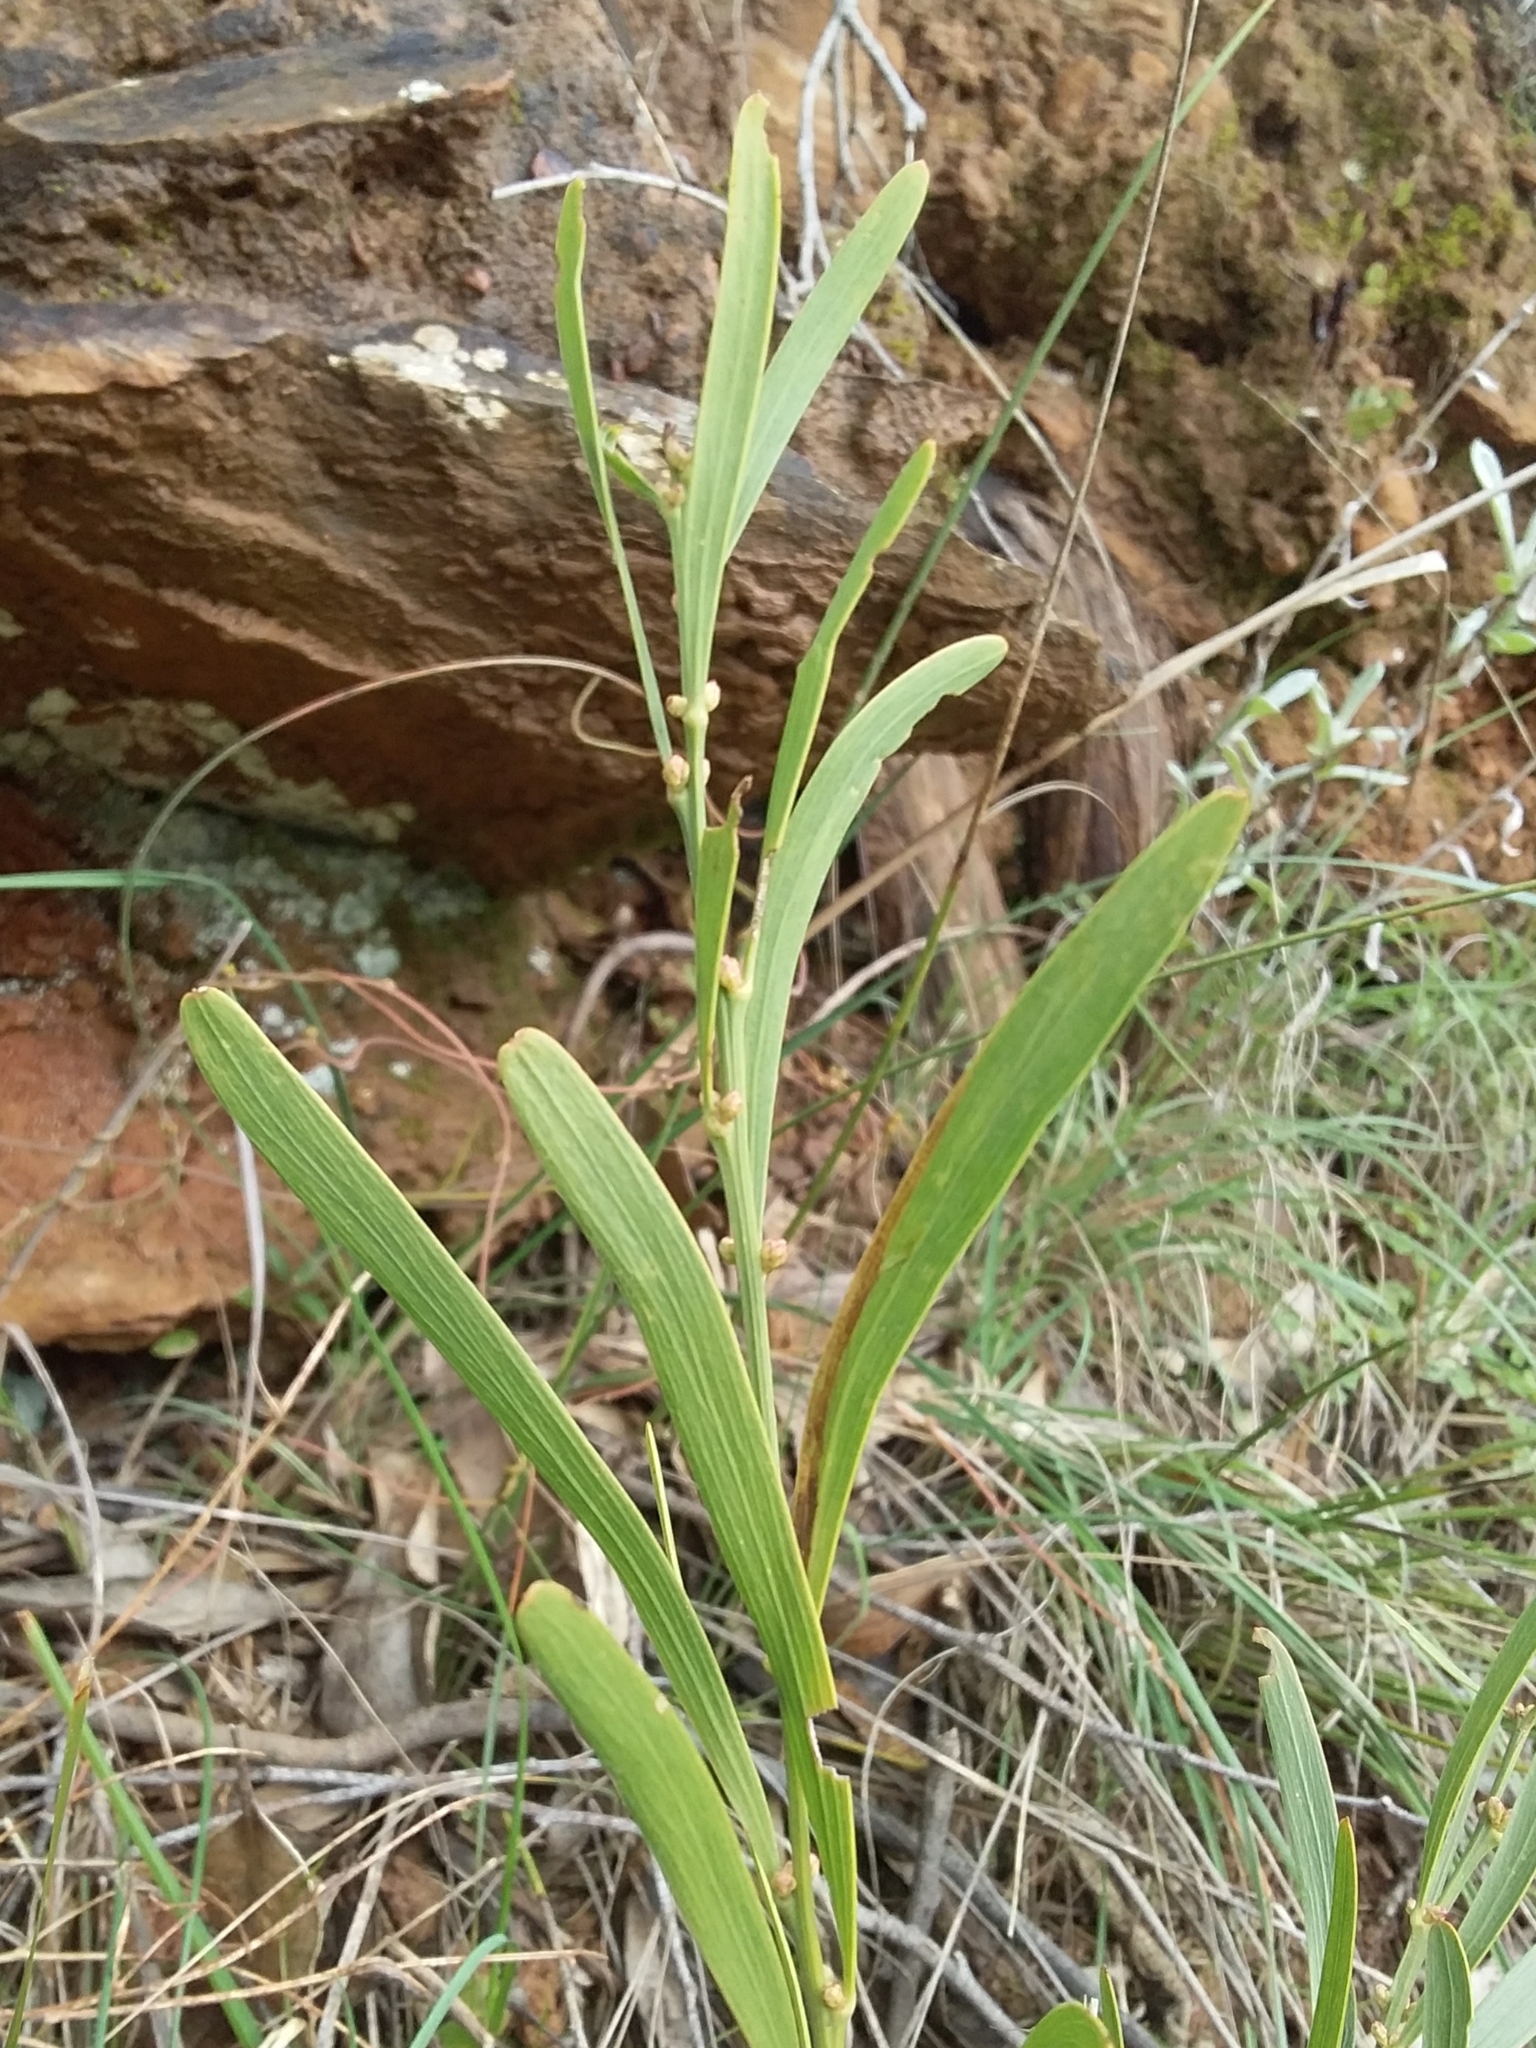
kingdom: Plantae
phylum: Tracheophyta
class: Magnoliopsida
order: Fabales
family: Fabaceae
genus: Daviesia
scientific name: Daviesia leptophylla
